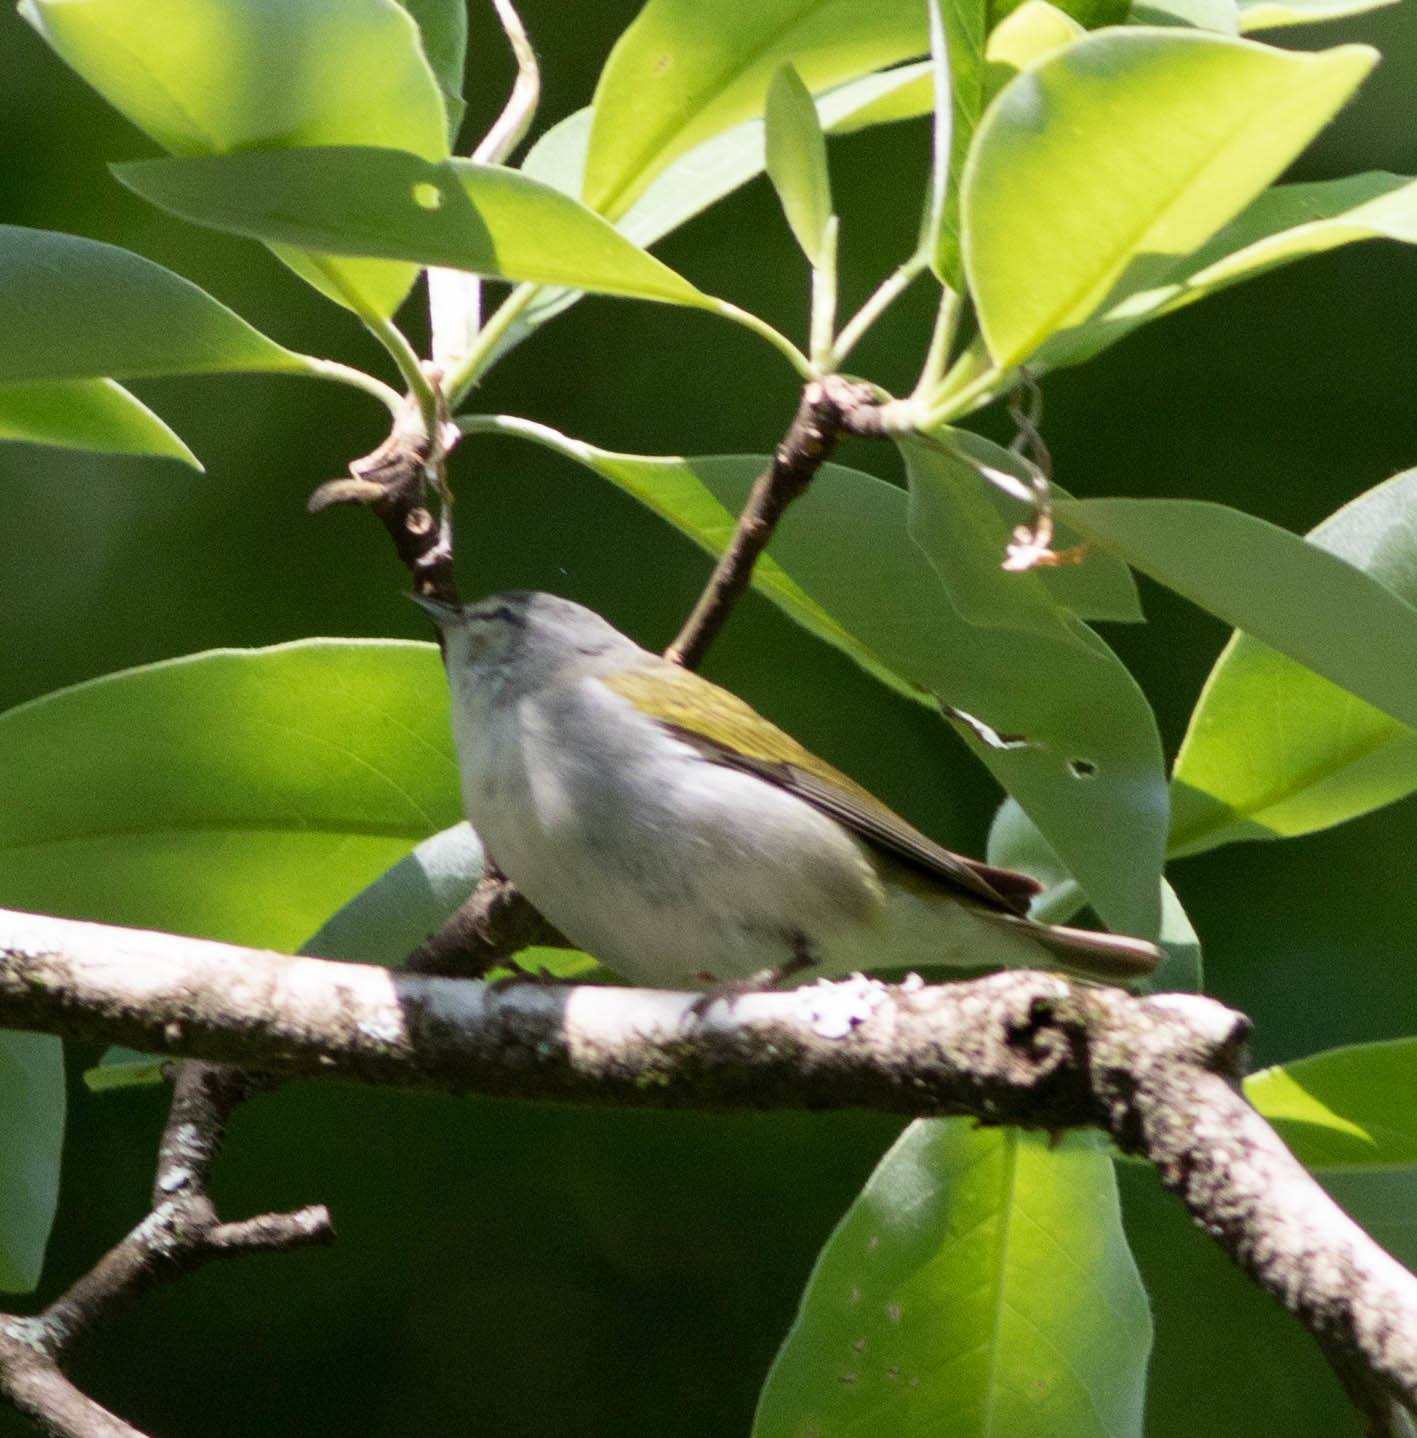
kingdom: Animalia
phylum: Chordata
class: Aves
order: Passeriformes
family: Parulidae
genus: Leiothlypis
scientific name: Leiothlypis peregrina
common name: Tennessee warbler
